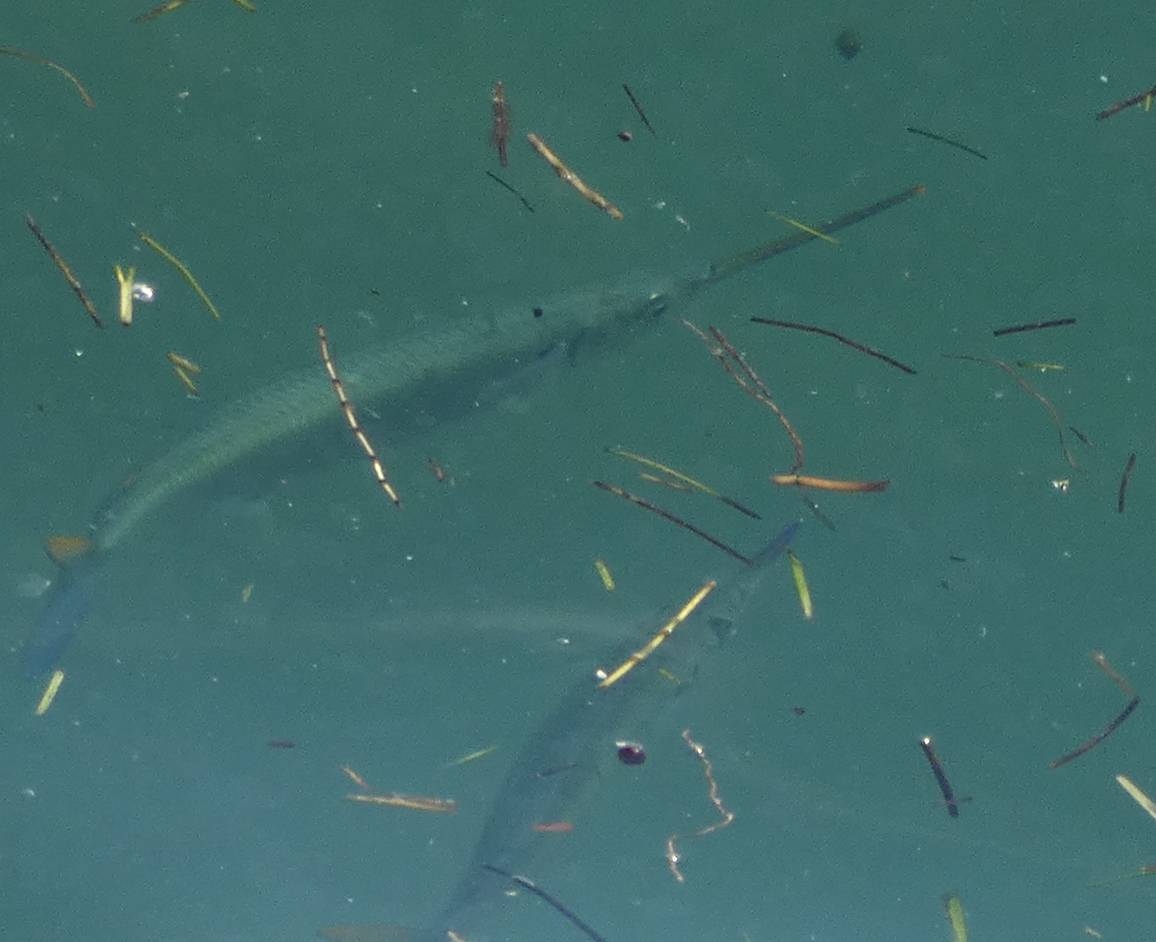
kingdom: Animalia
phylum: Chordata
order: Beloniformes
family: Hemiramphidae
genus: Hemiramphus
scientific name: Hemiramphus brasiliensis
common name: Ballyhoo
